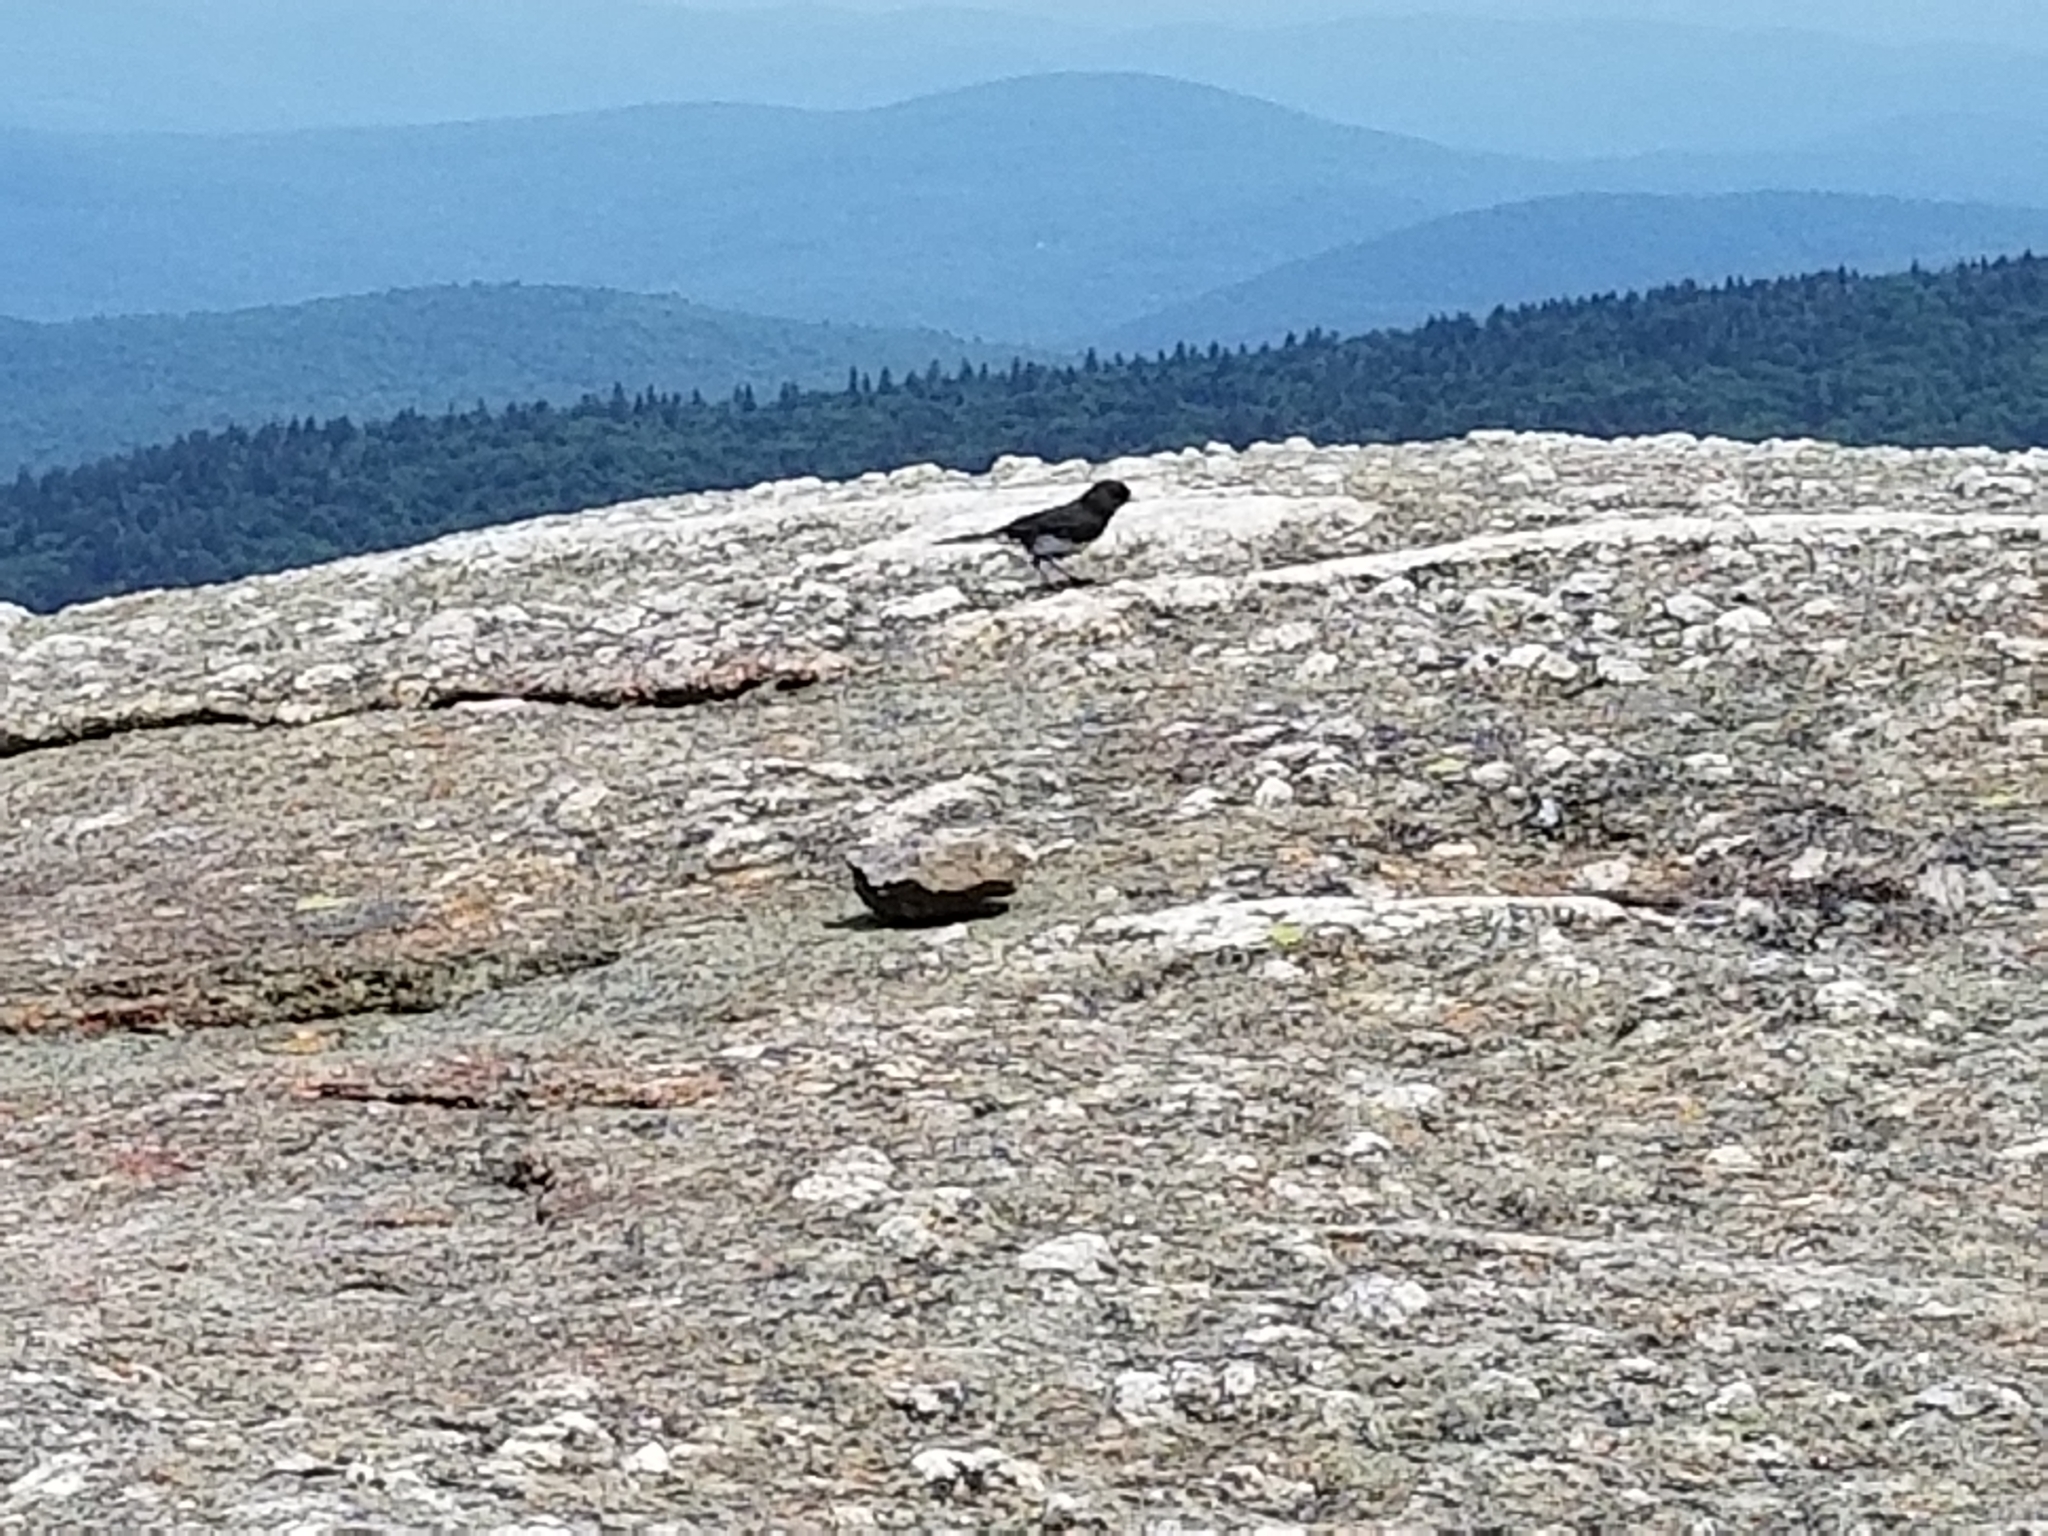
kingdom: Animalia
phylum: Chordata
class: Aves
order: Passeriformes
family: Passerellidae
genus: Junco
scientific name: Junco hyemalis
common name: Dark-eyed junco
